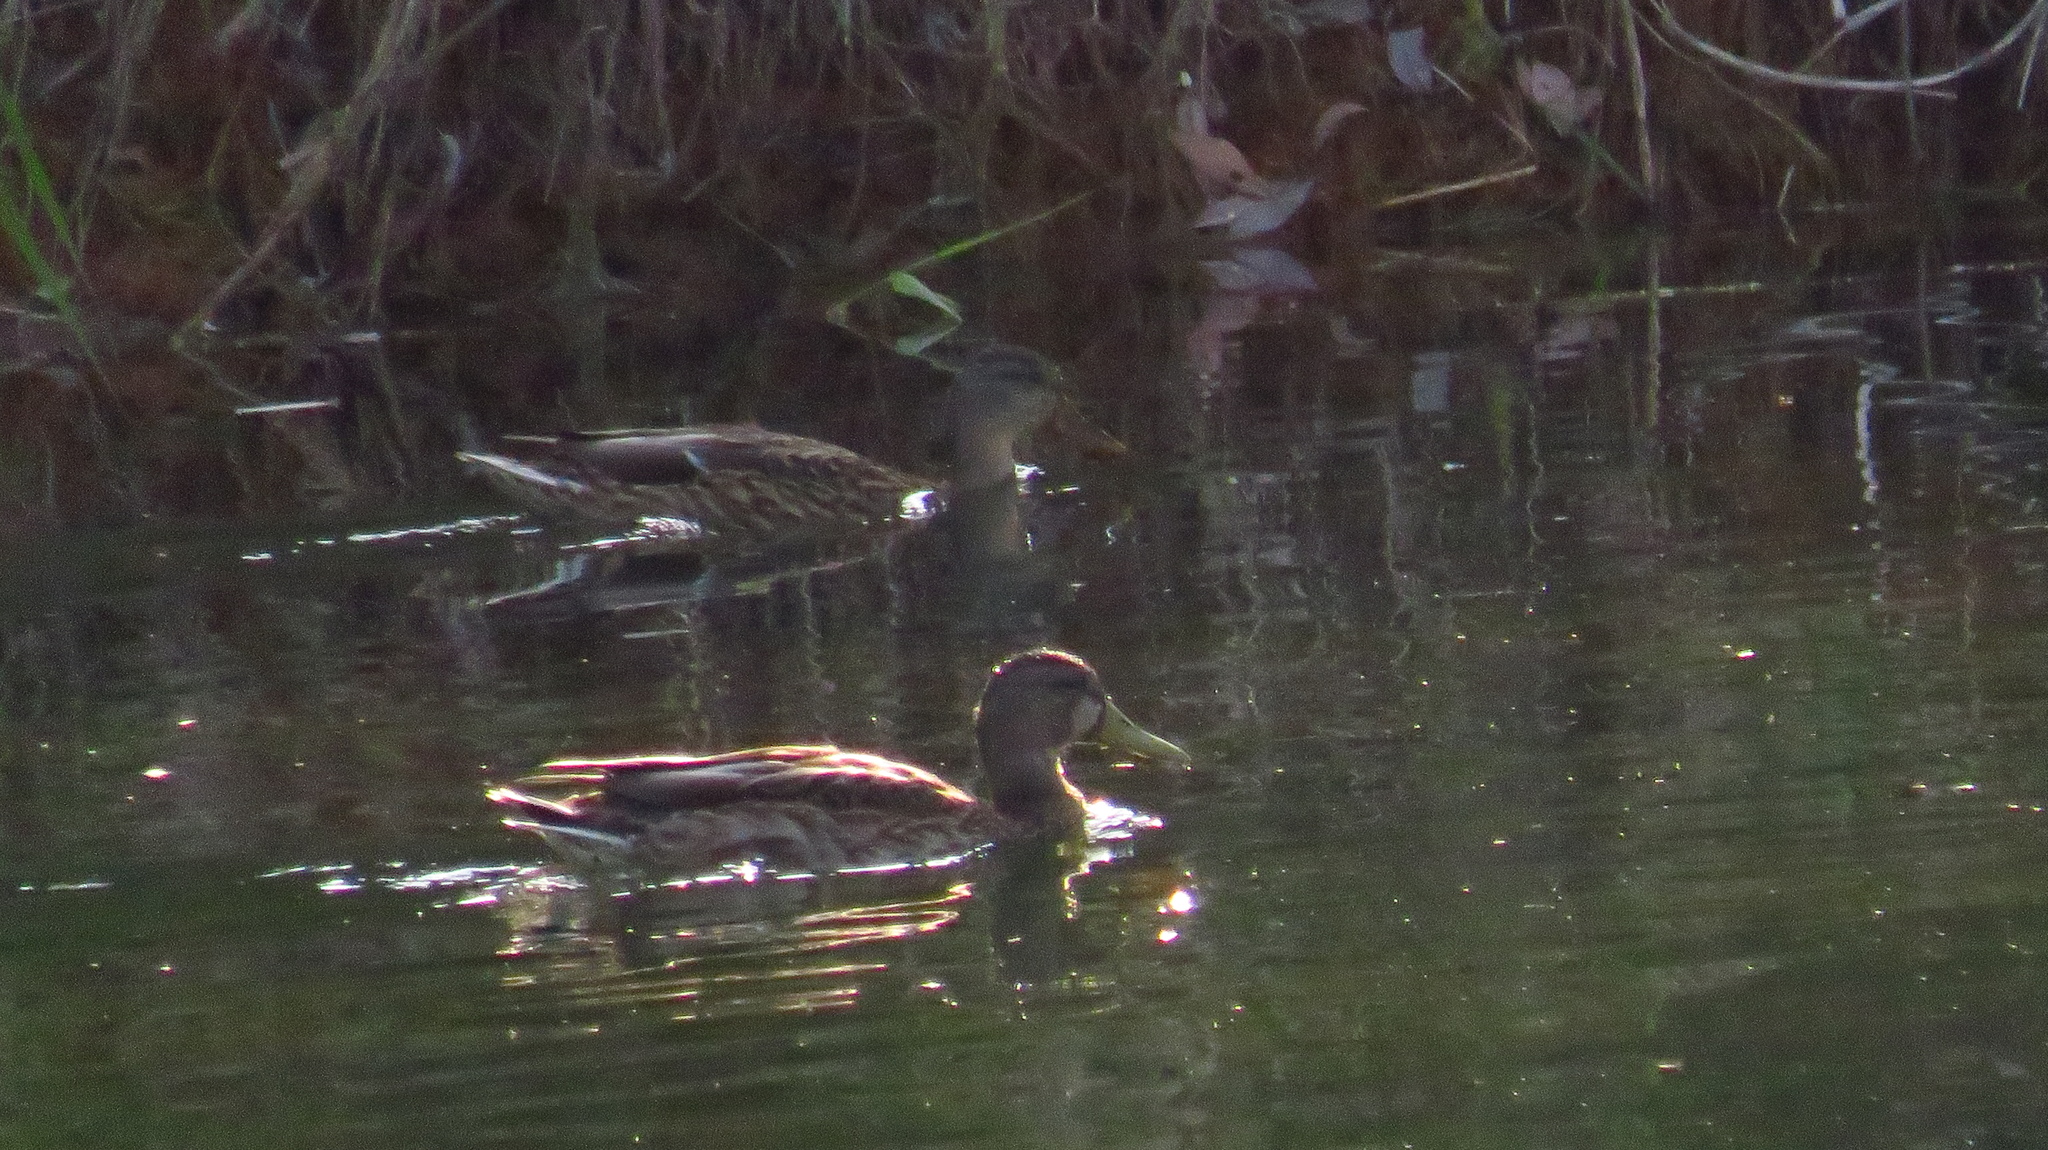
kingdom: Animalia
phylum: Chordata
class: Aves
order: Anseriformes
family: Anatidae
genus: Anas
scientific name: Anas platyrhynchos
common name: Mallard
